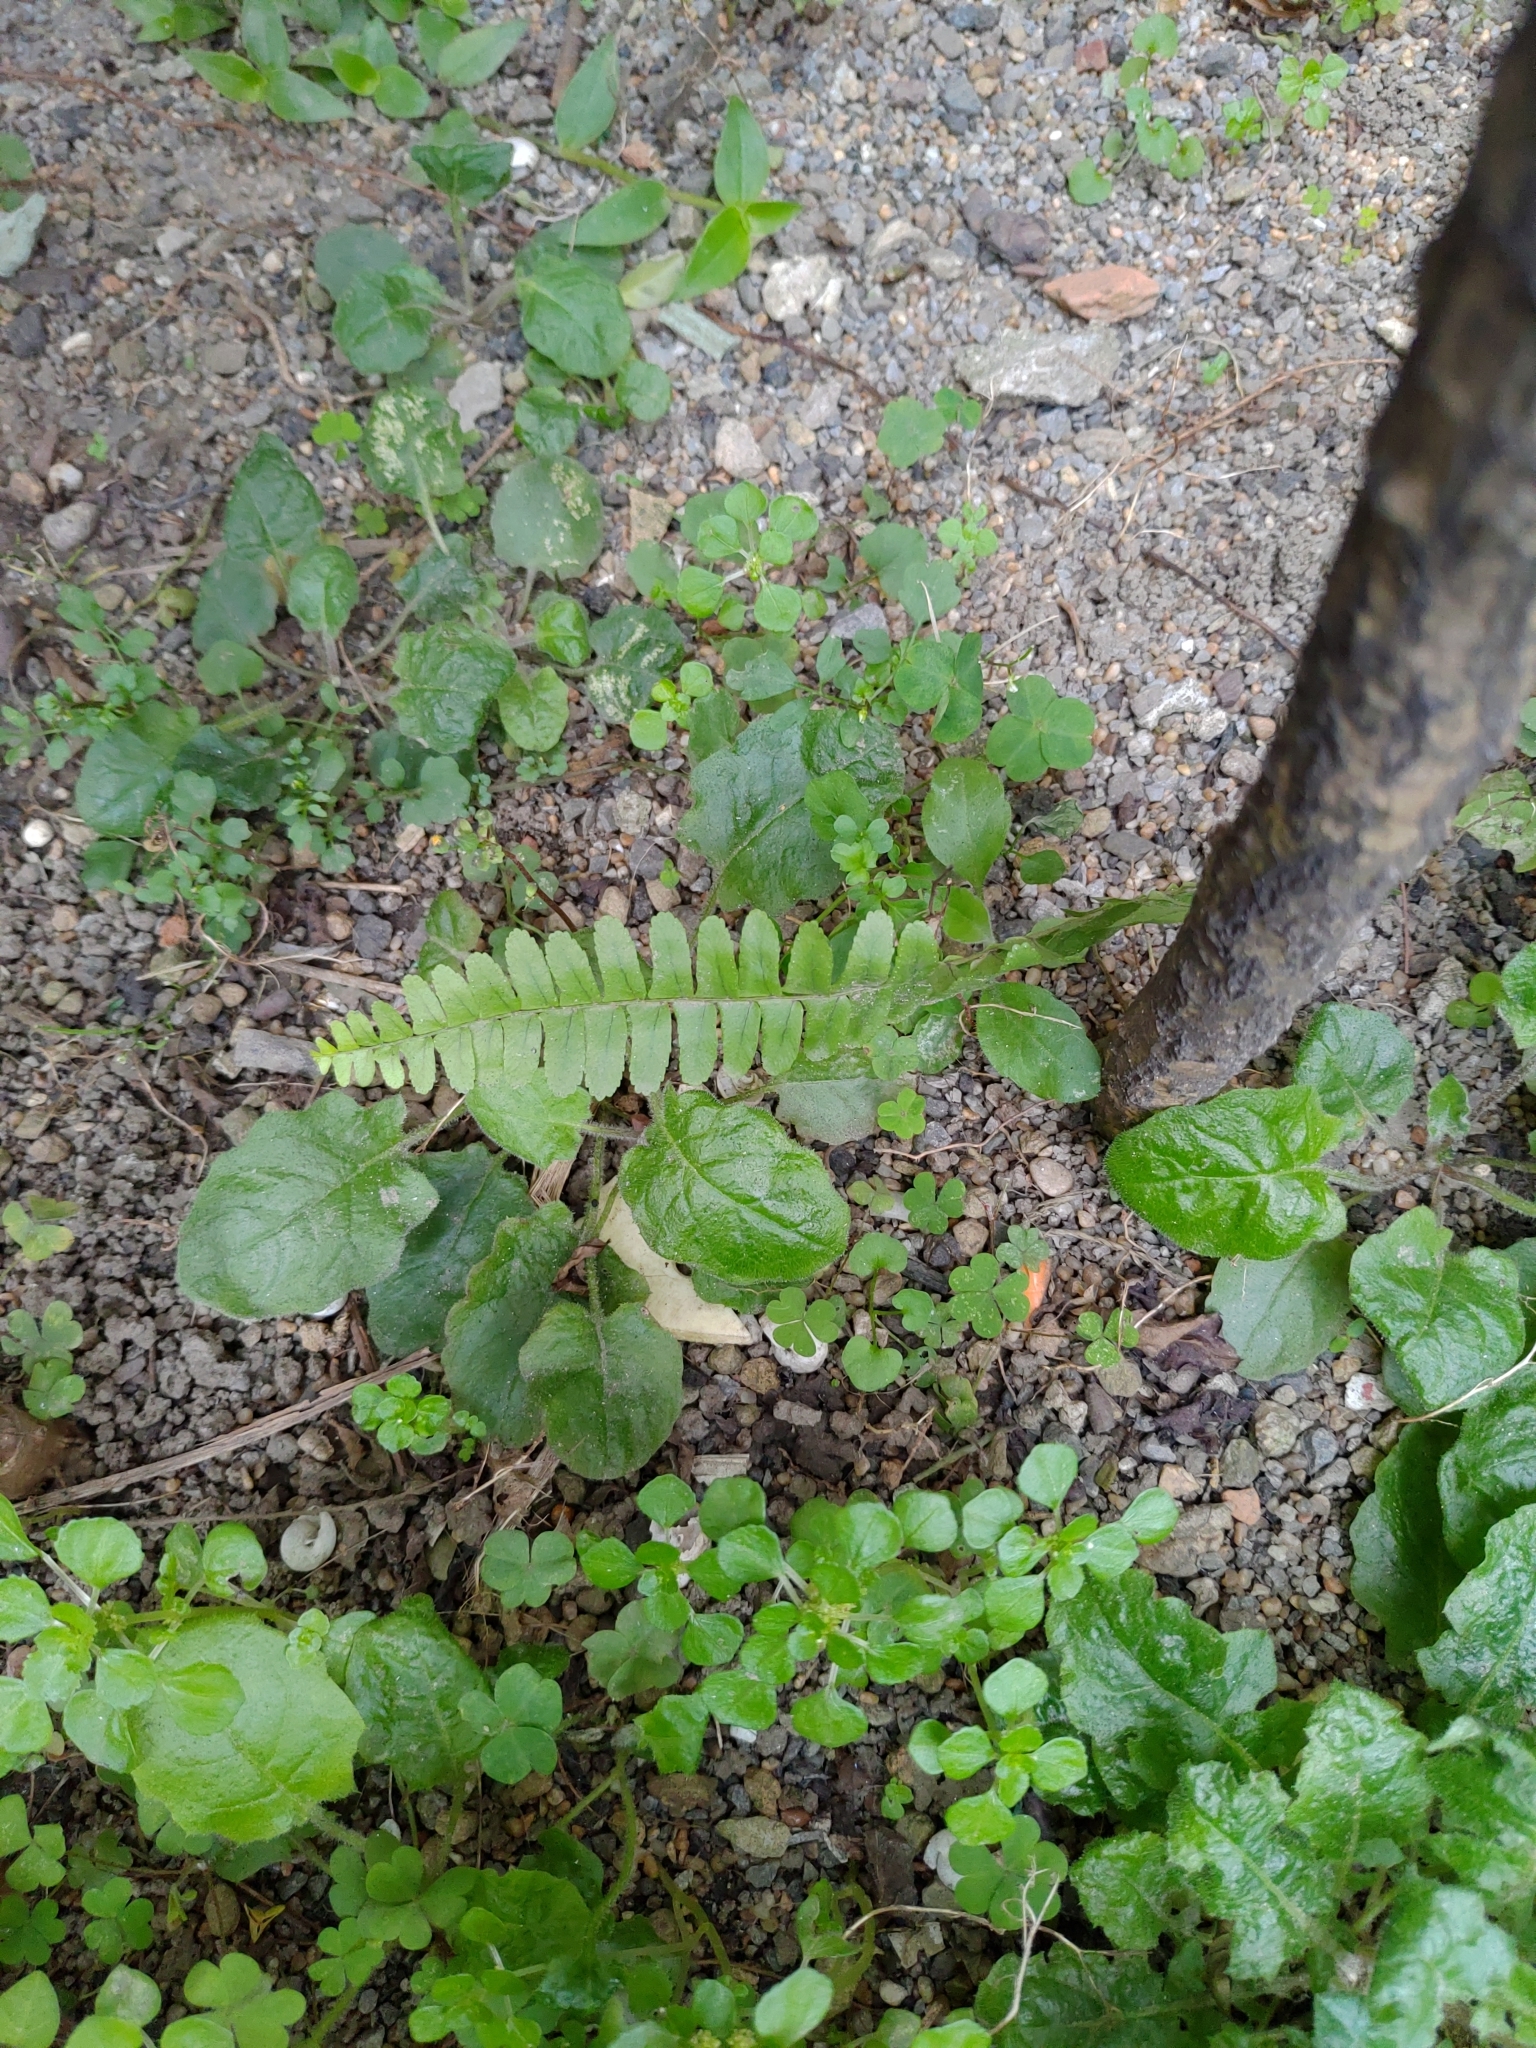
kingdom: Plantae
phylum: Tracheophyta
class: Polypodiopsida
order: Polypodiales
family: Nephrolepidaceae
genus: Nephrolepis
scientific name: Nephrolepis cordifolia
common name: Narrow swordfern
